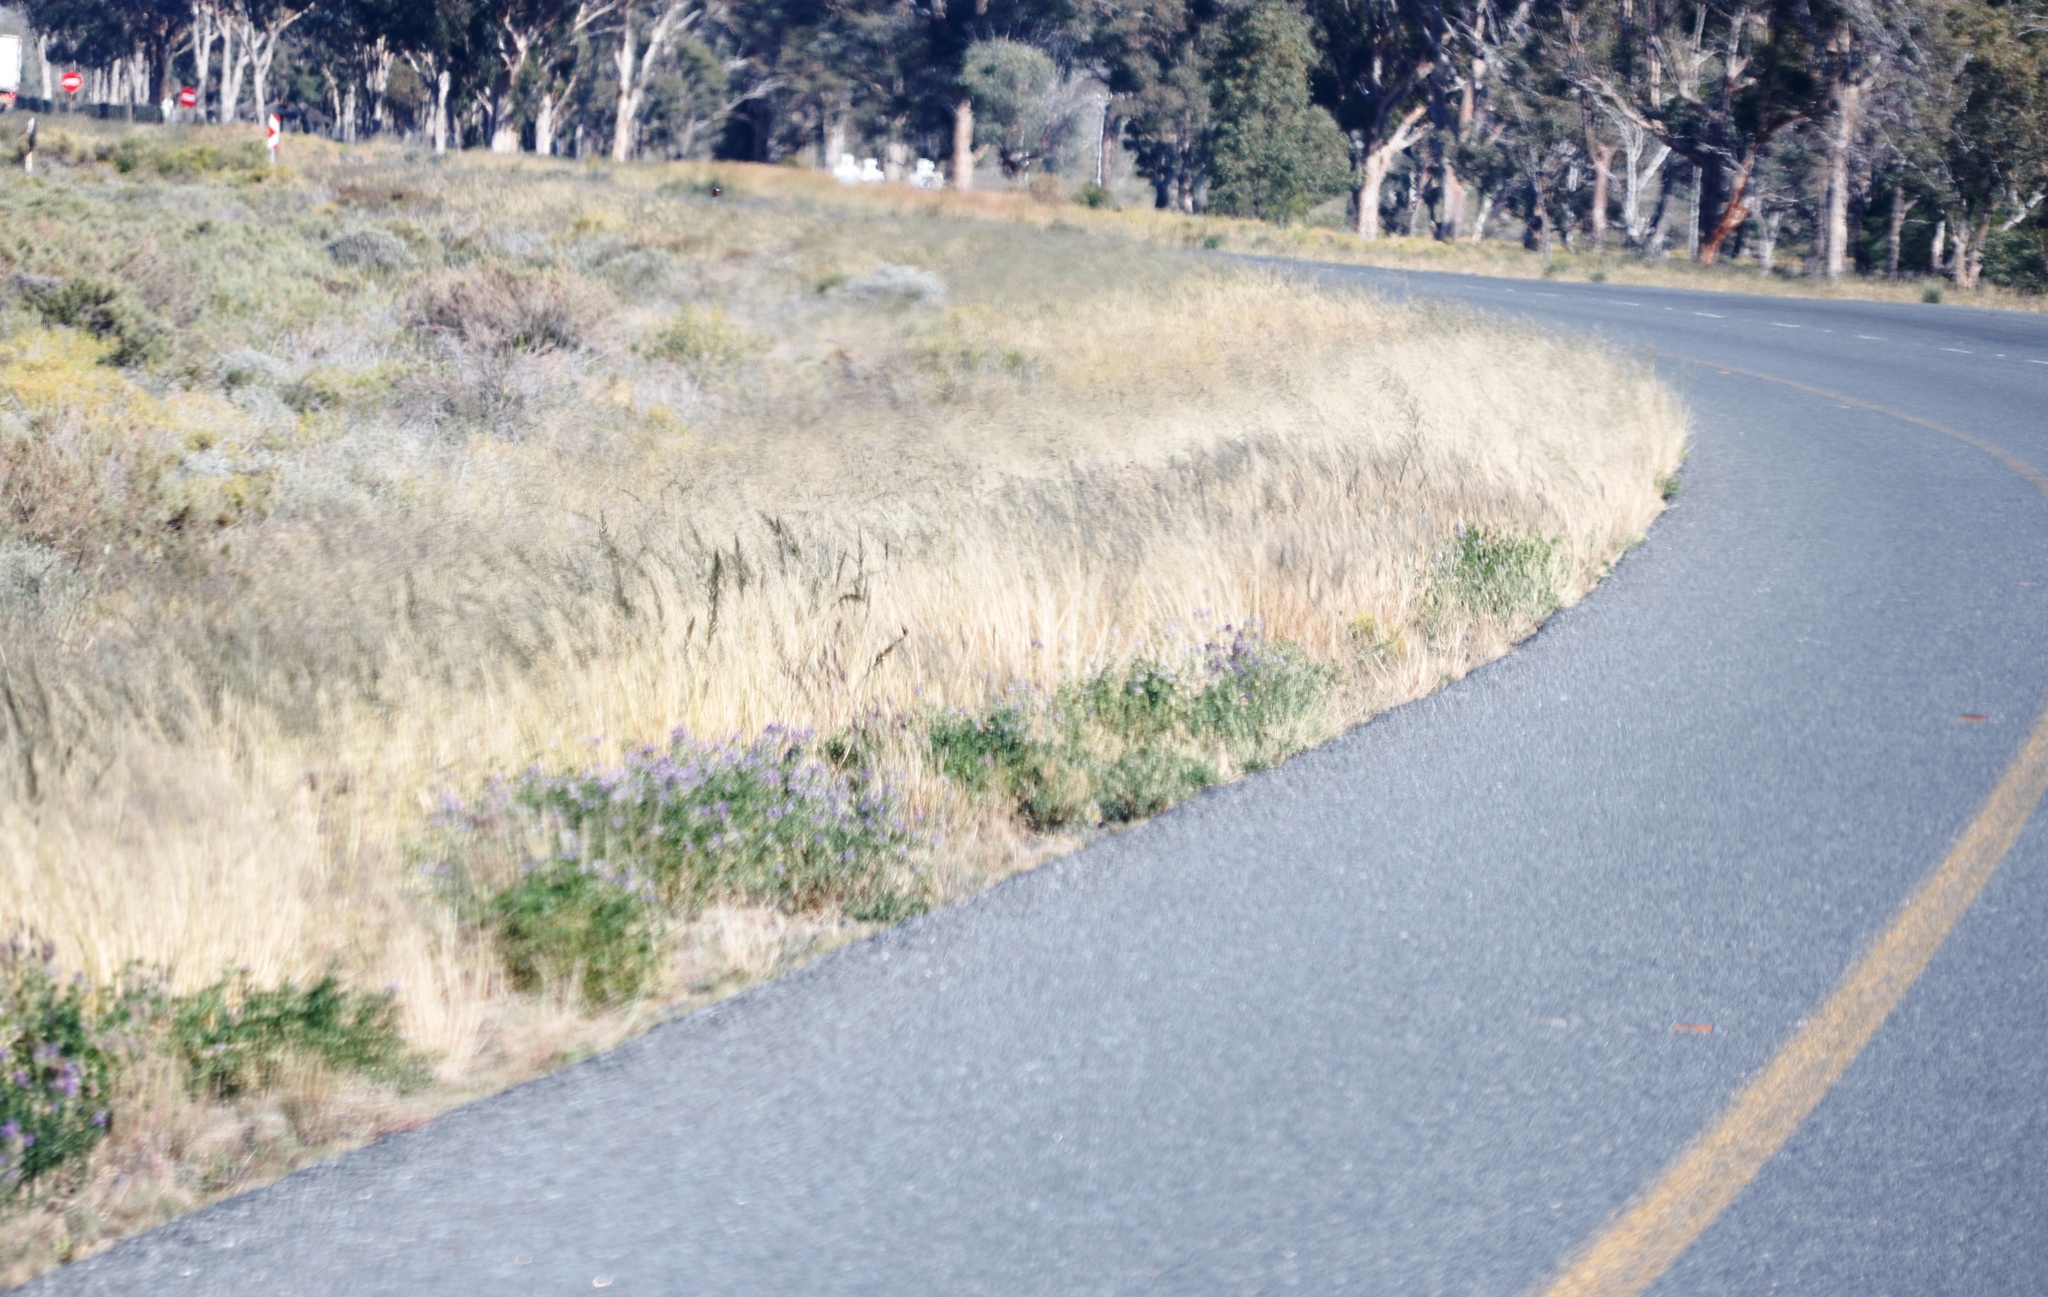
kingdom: Plantae
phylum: Tracheophyta
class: Magnoliopsida
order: Fabales
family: Fabaceae
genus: Medicago
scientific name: Medicago sativa
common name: Alfalfa
